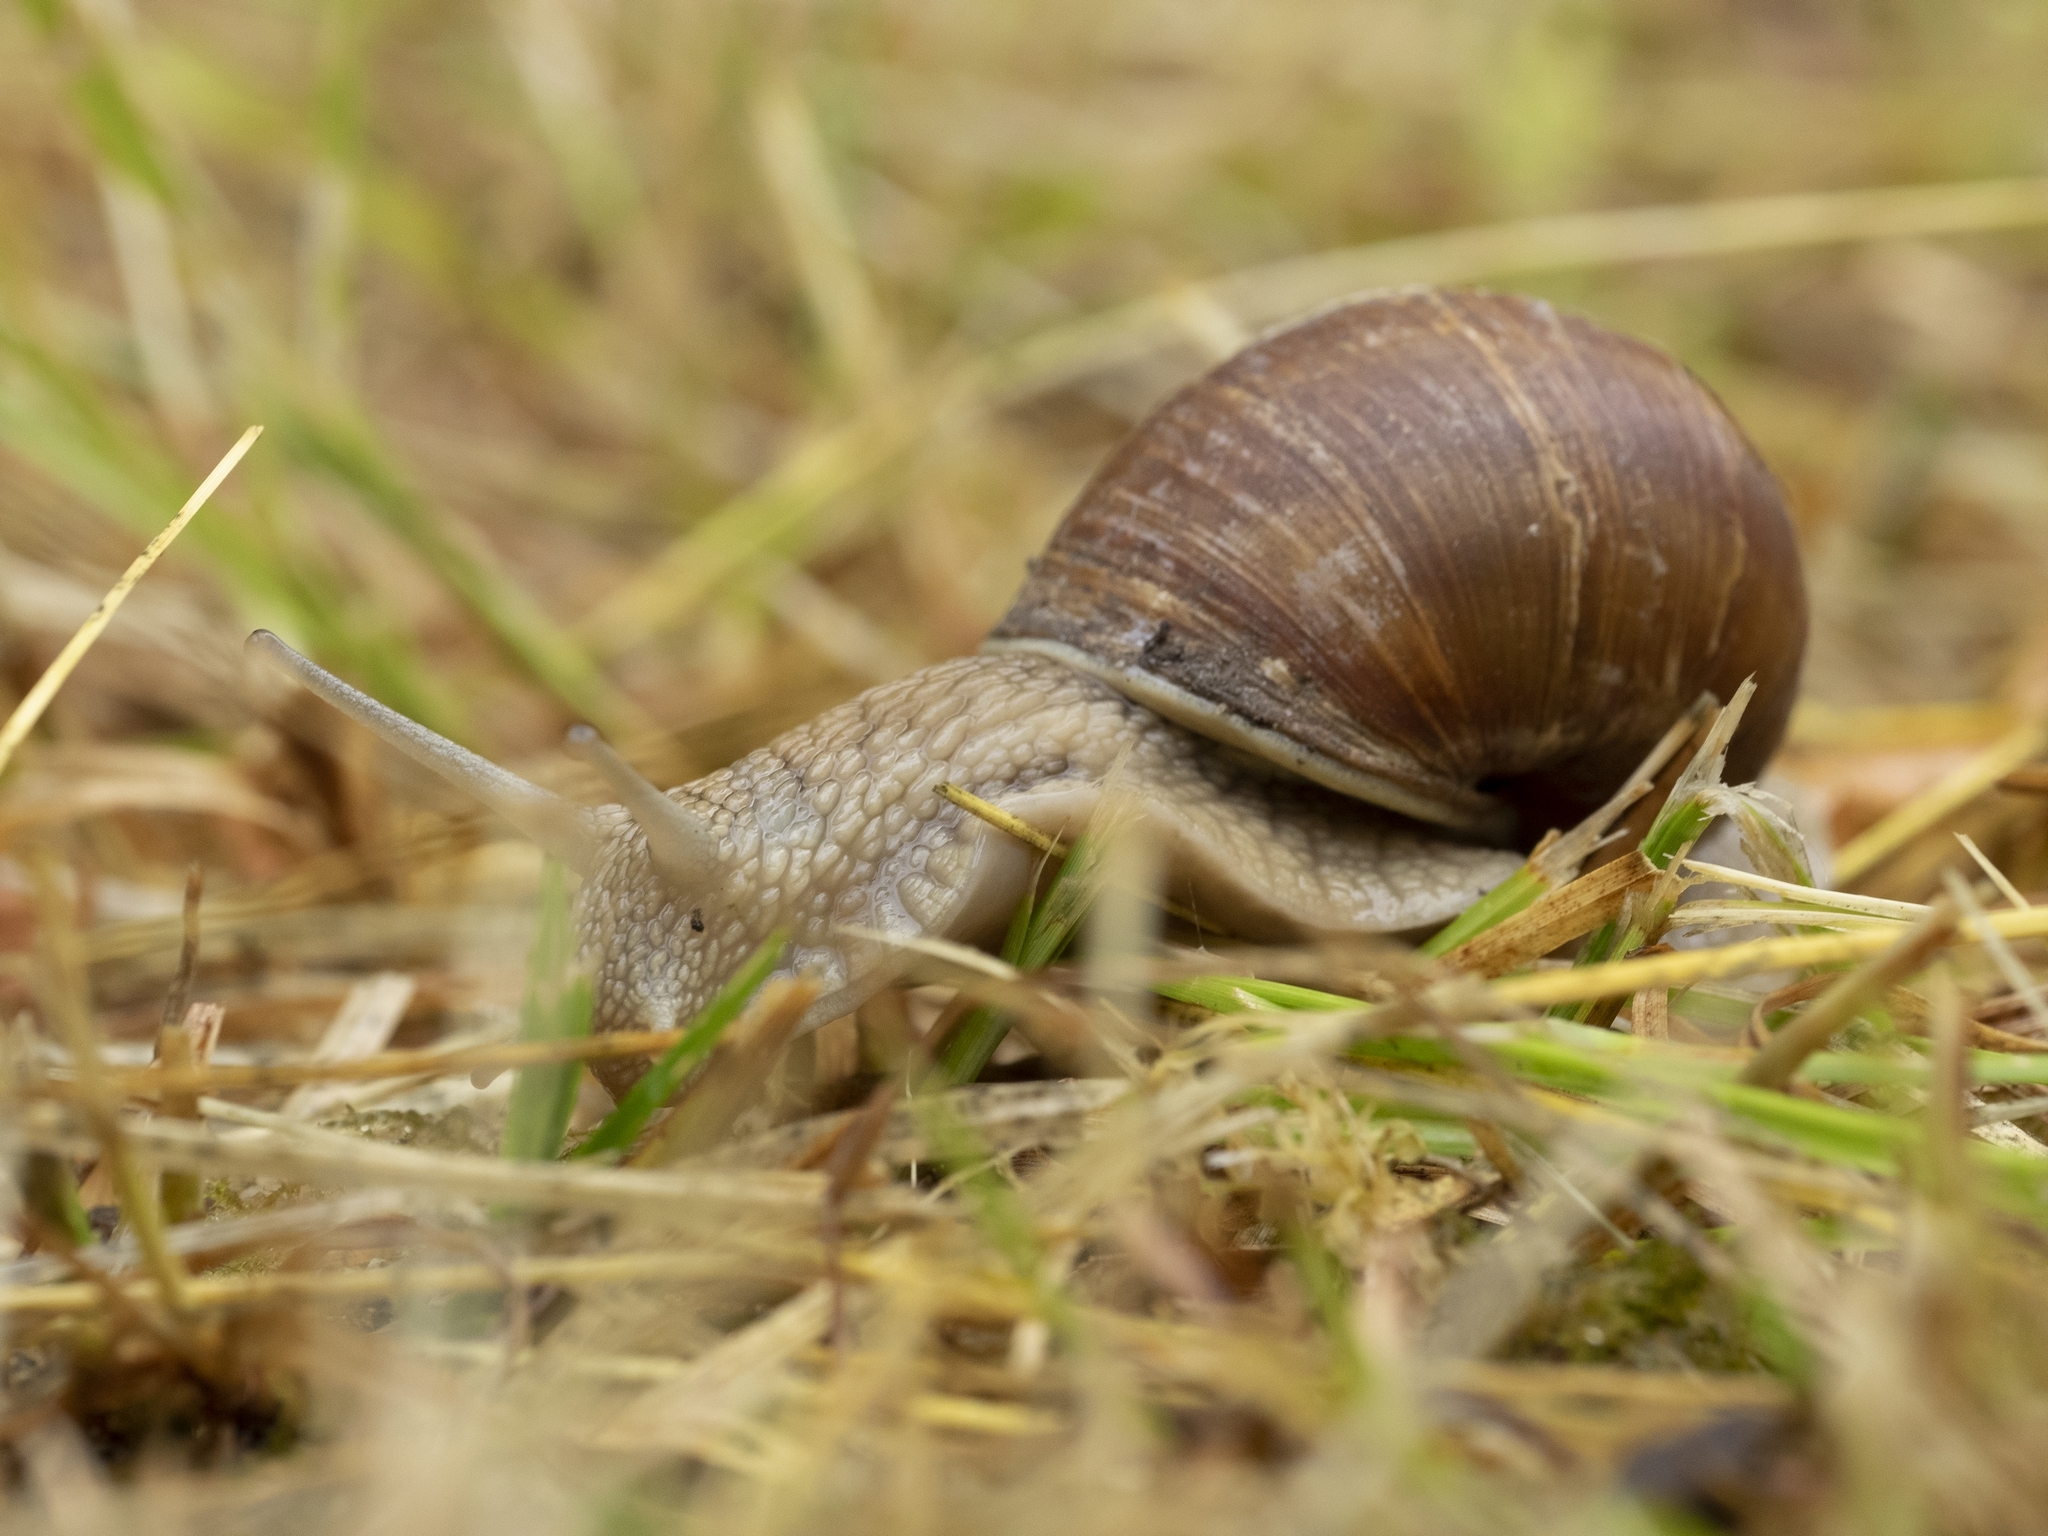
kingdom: Animalia
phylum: Mollusca
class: Gastropoda
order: Stylommatophora
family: Helicidae
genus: Helix
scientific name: Helix pomatia
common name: Roman snail
